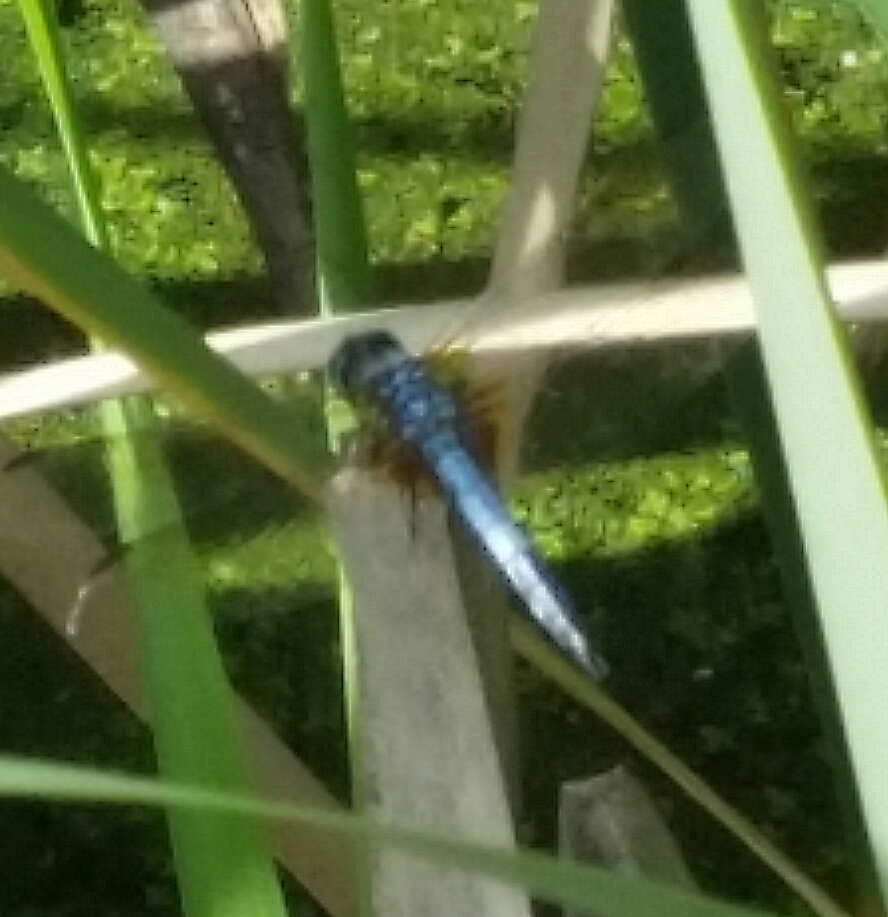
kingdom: Animalia
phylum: Arthropoda
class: Insecta
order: Odonata
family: Libellulidae
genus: Pachydiplax
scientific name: Pachydiplax longipennis
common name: Blue dasher
